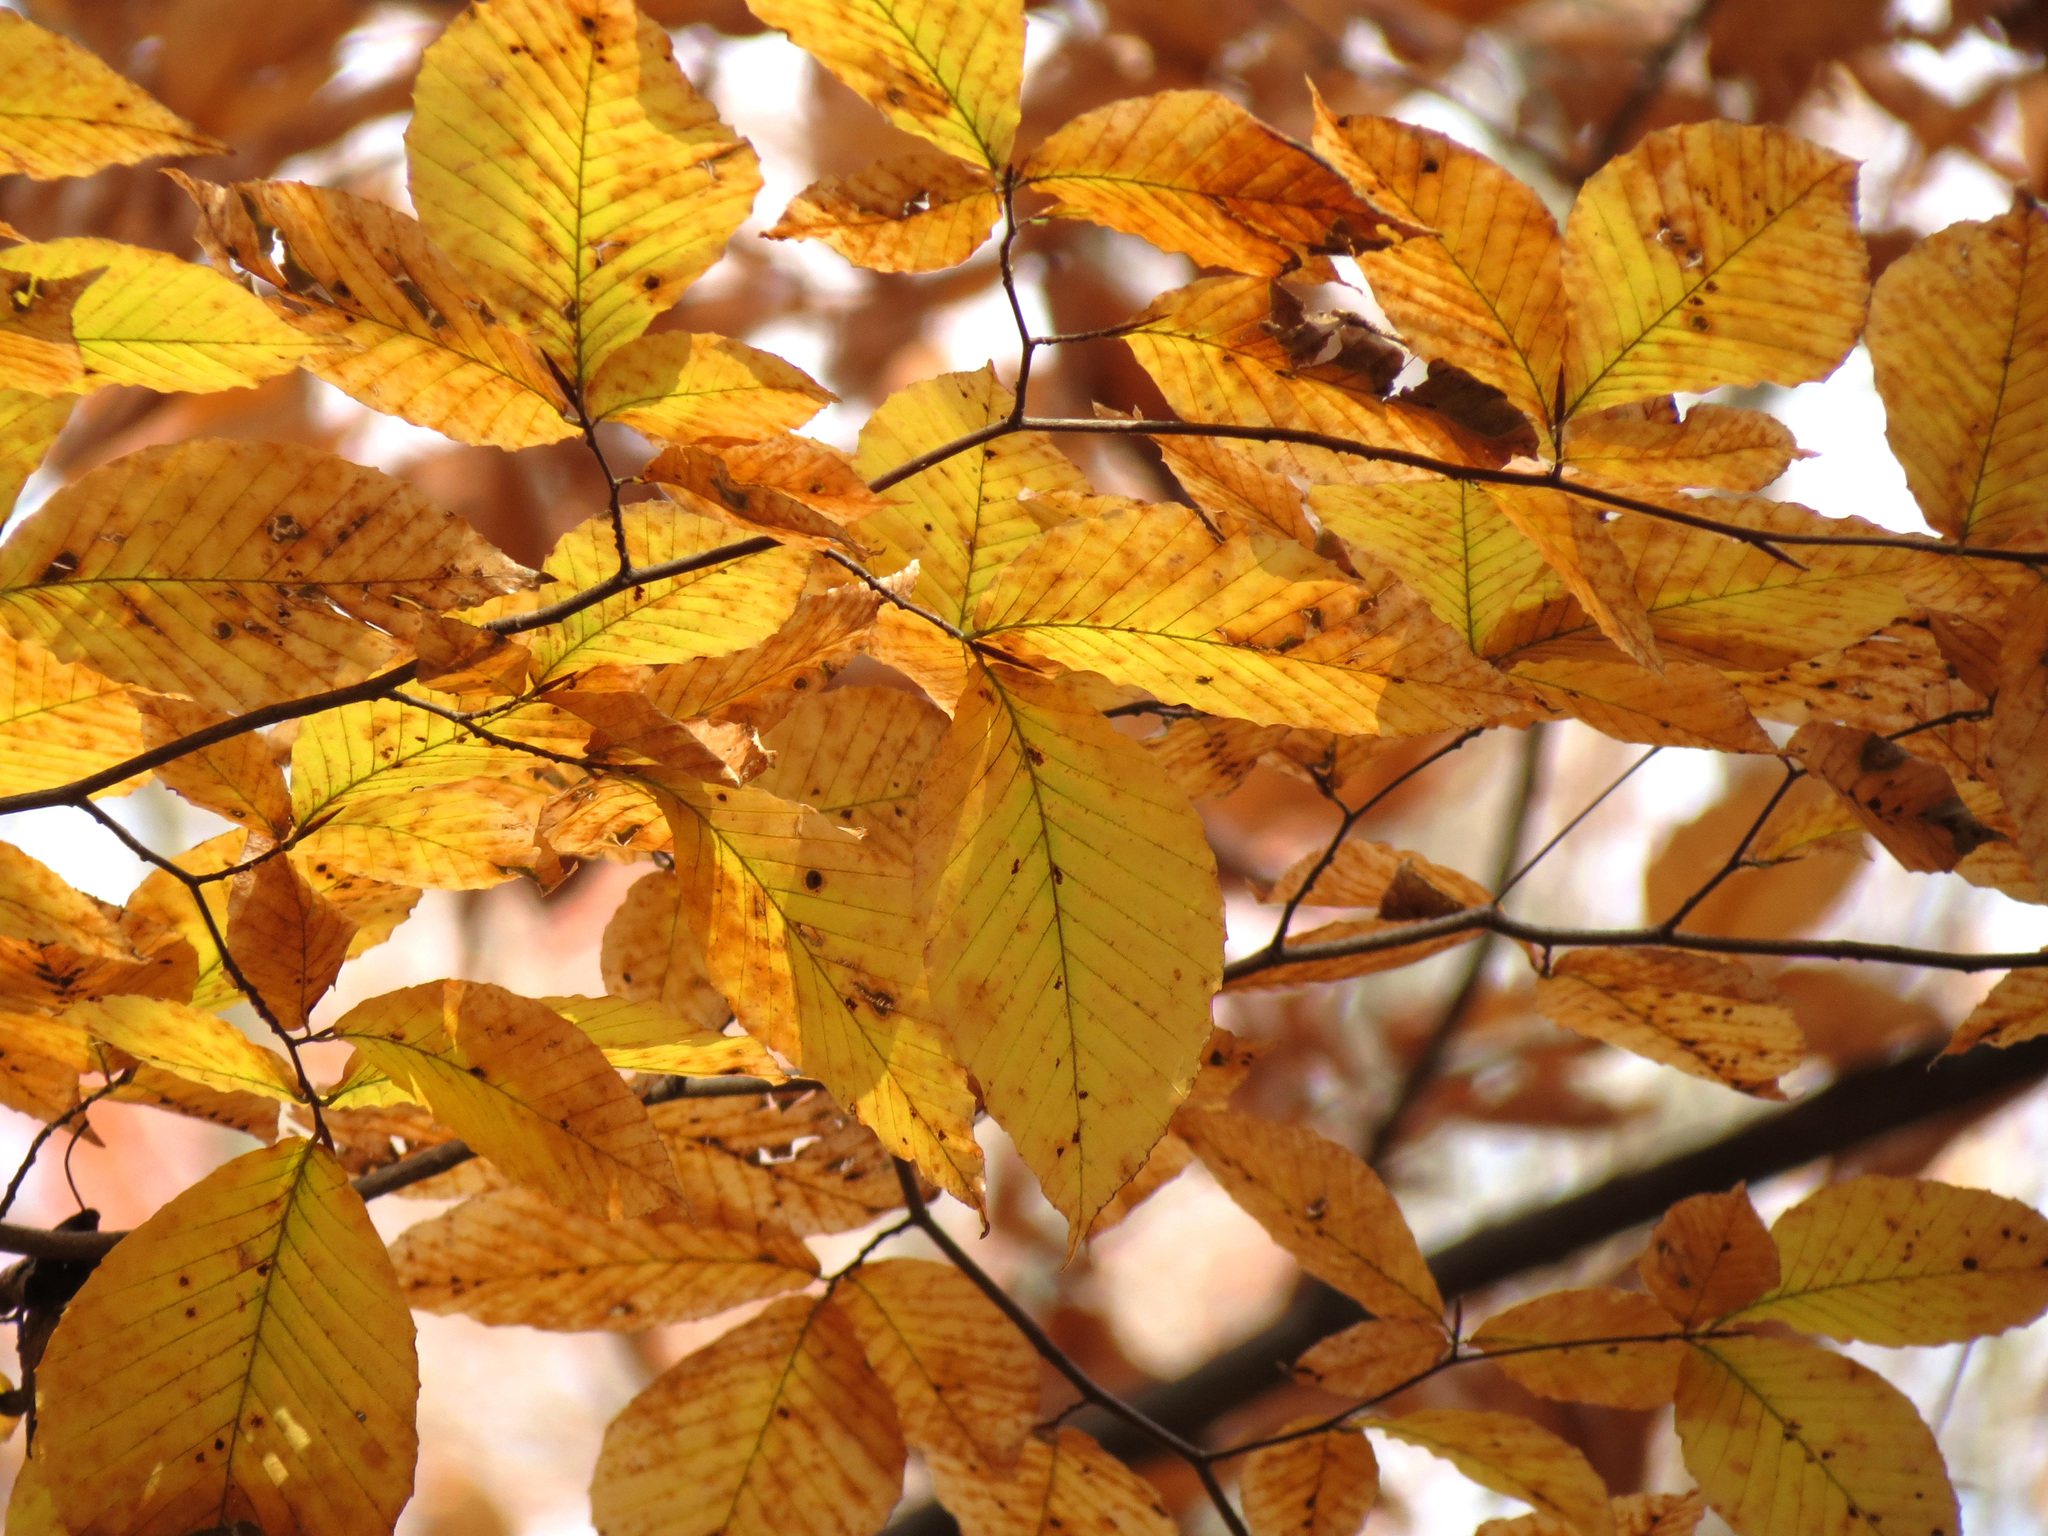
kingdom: Plantae
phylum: Tracheophyta
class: Magnoliopsida
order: Fagales
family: Fagaceae
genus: Fagus
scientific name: Fagus grandifolia
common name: American beech
